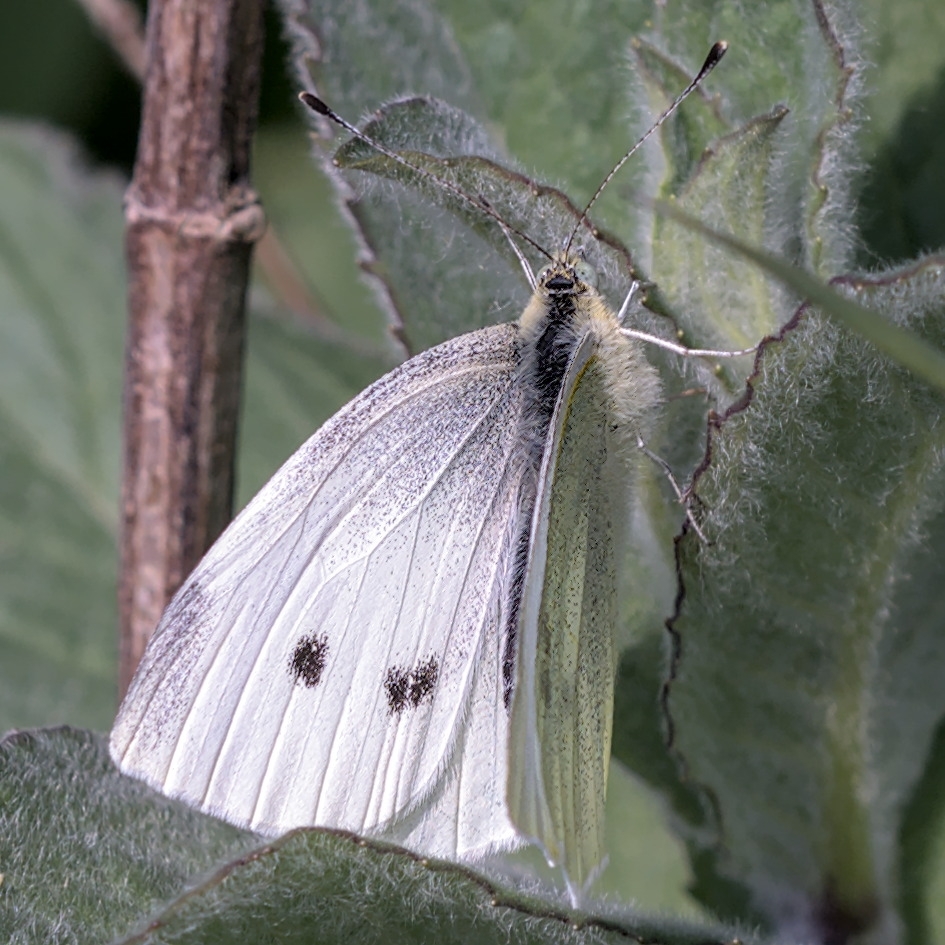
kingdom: Animalia
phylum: Arthropoda
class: Insecta
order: Lepidoptera
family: Pieridae
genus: Pieris
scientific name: Pieris rapae
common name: Small white
